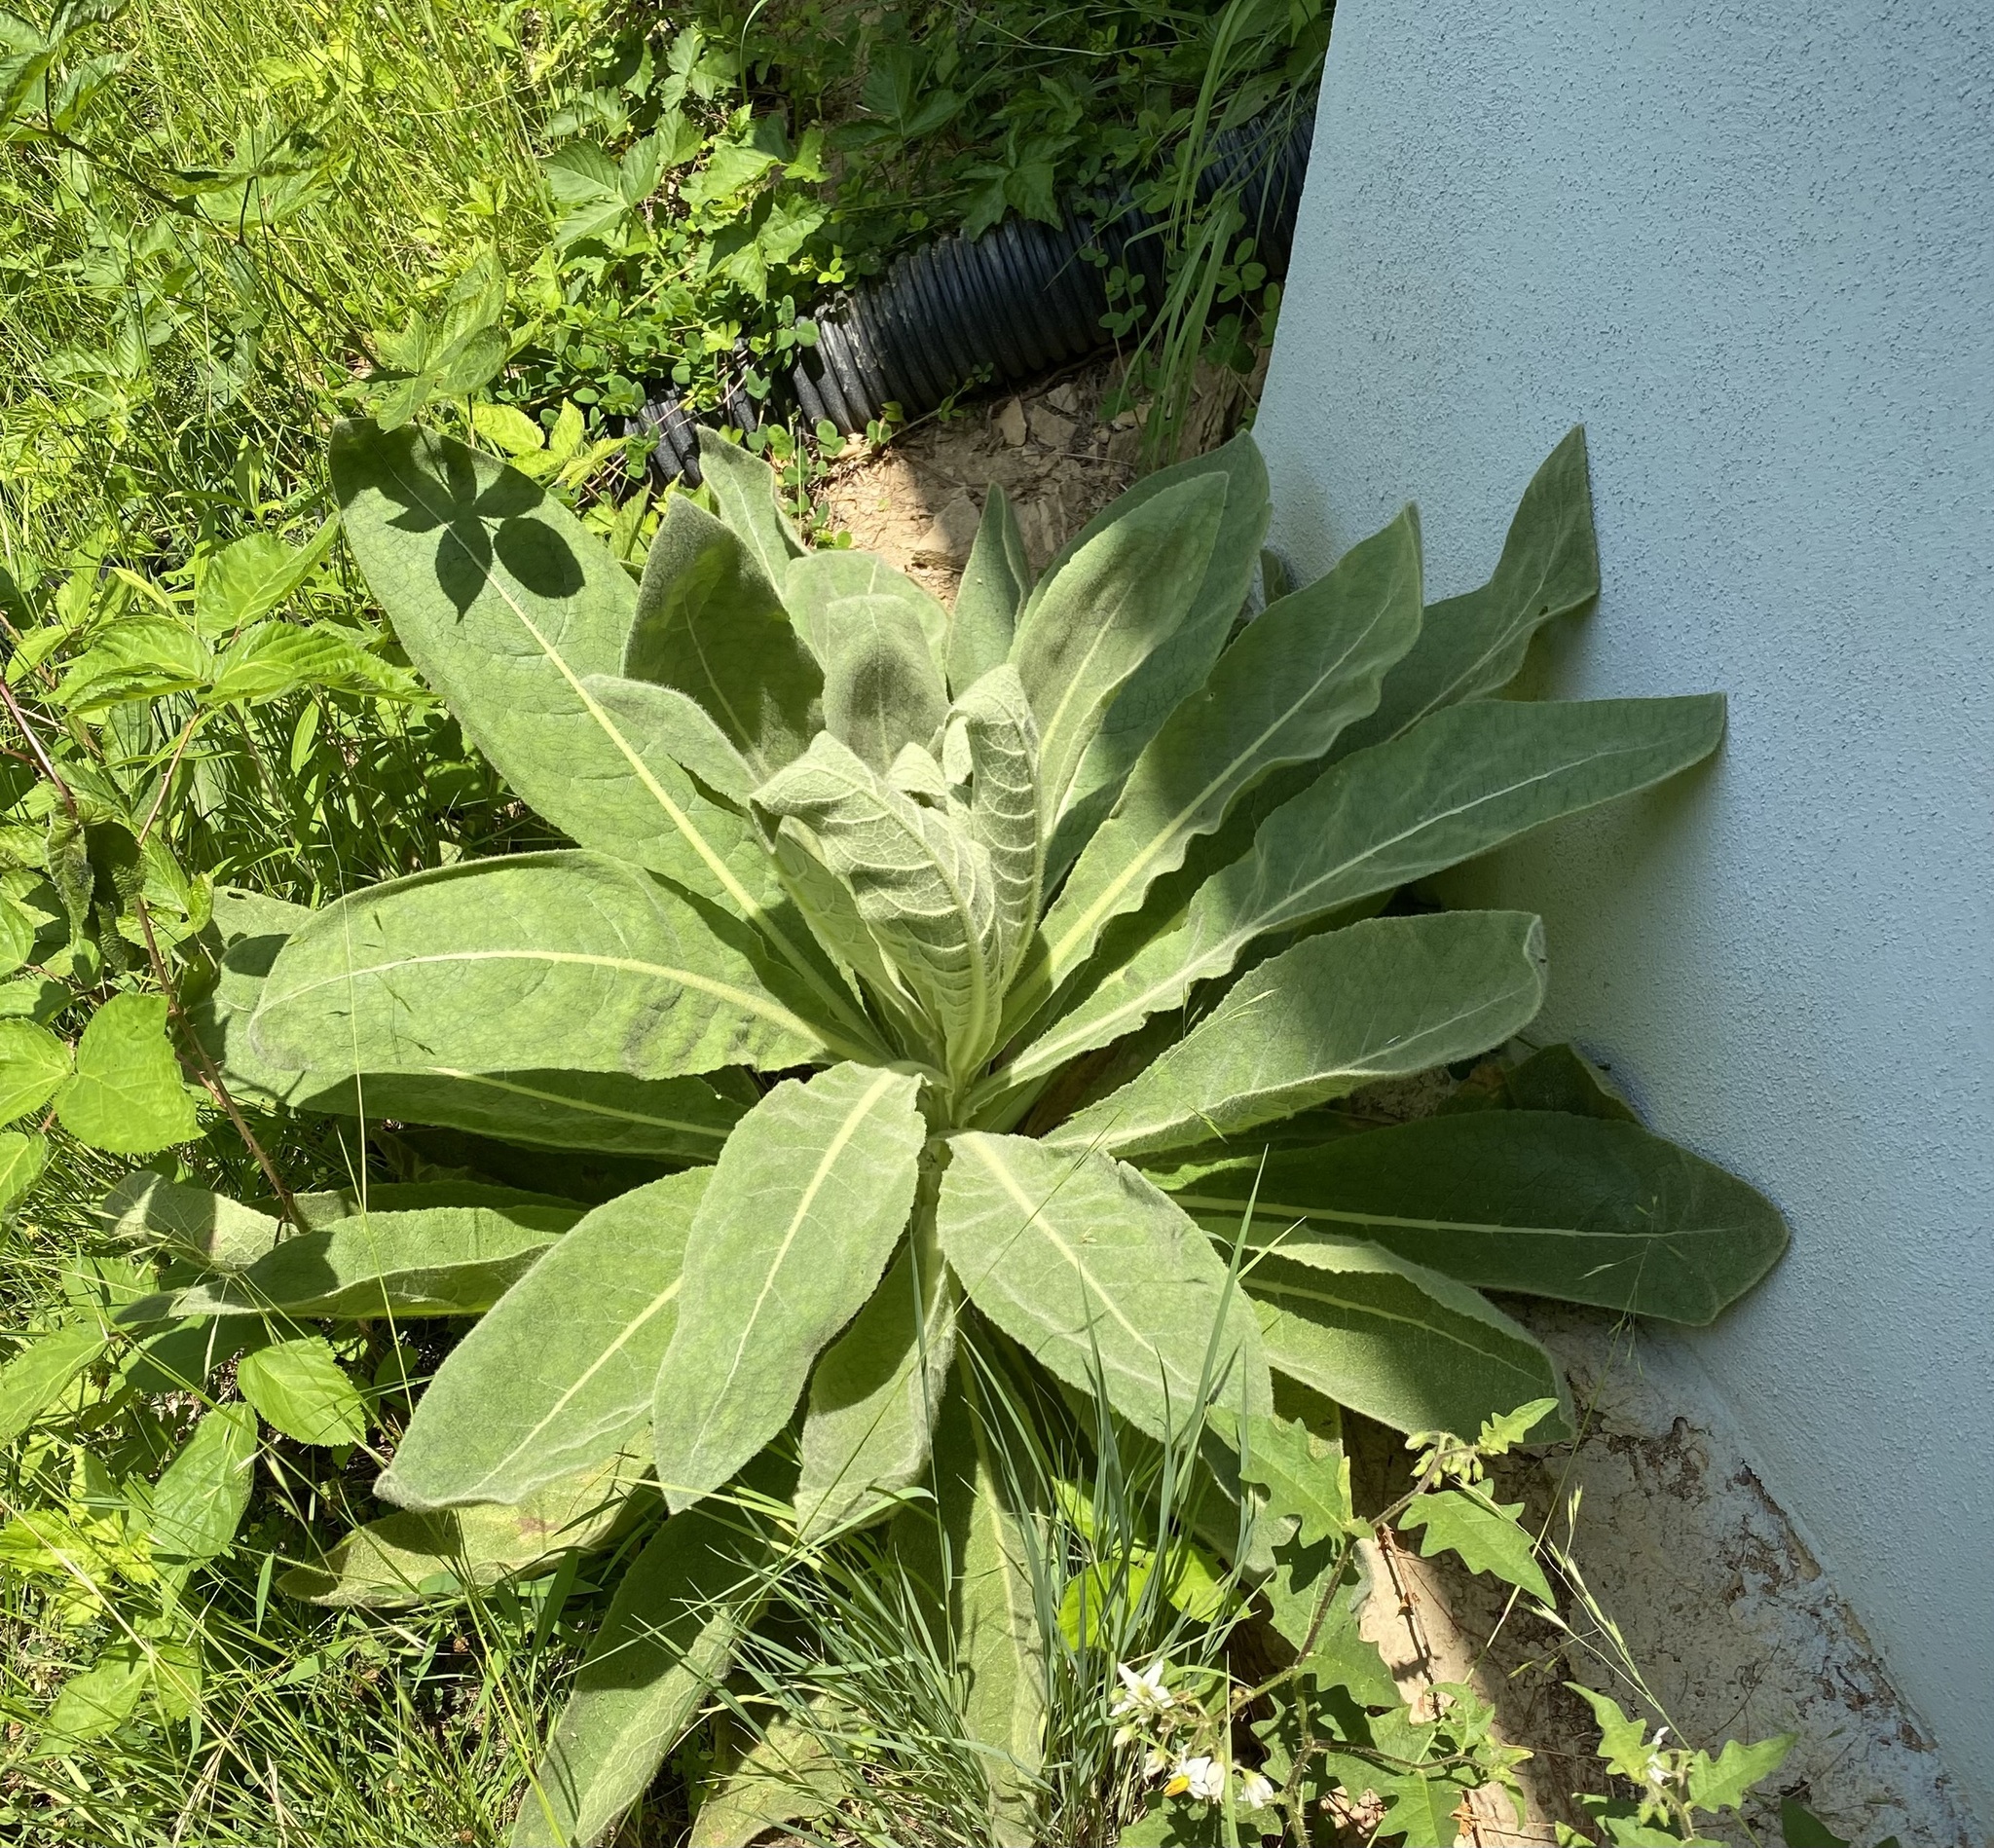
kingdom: Plantae
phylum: Tracheophyta
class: Magnoliopsida
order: Lamiales
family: Scrophulariaceae
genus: Verbascum
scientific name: Verbascum thapsus
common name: Common mullein
